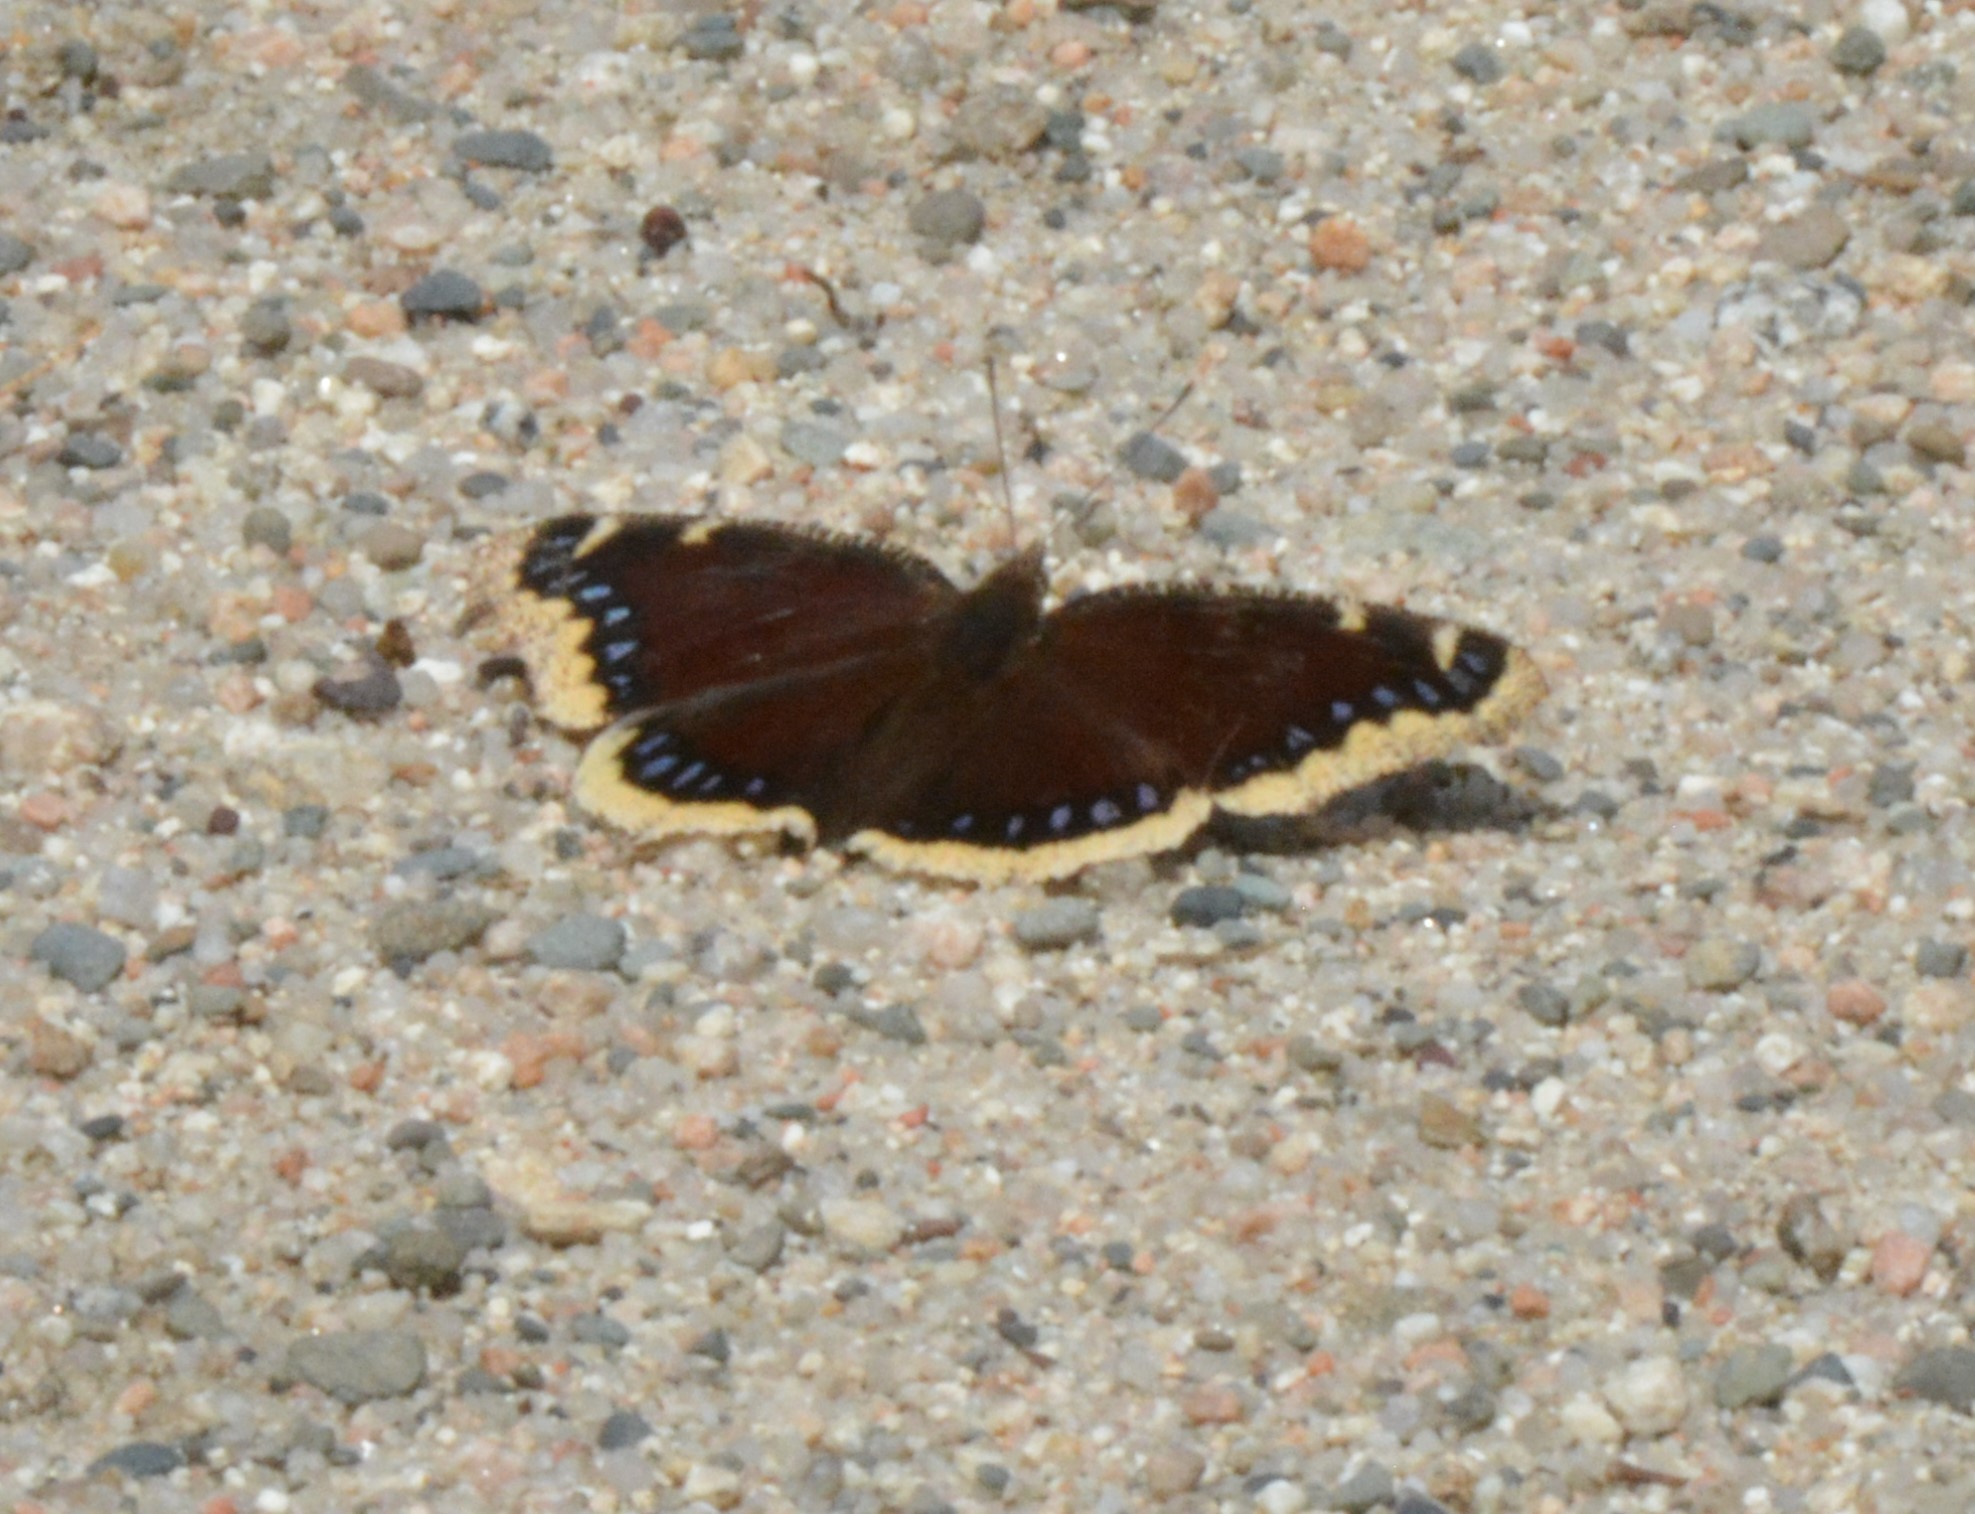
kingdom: Animalia
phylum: Arthropoda
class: Insecta
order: Lepidoptera
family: Nymphalidae
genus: Nymphalis
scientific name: Nymphalis antiopa
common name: Camberwell beauty
